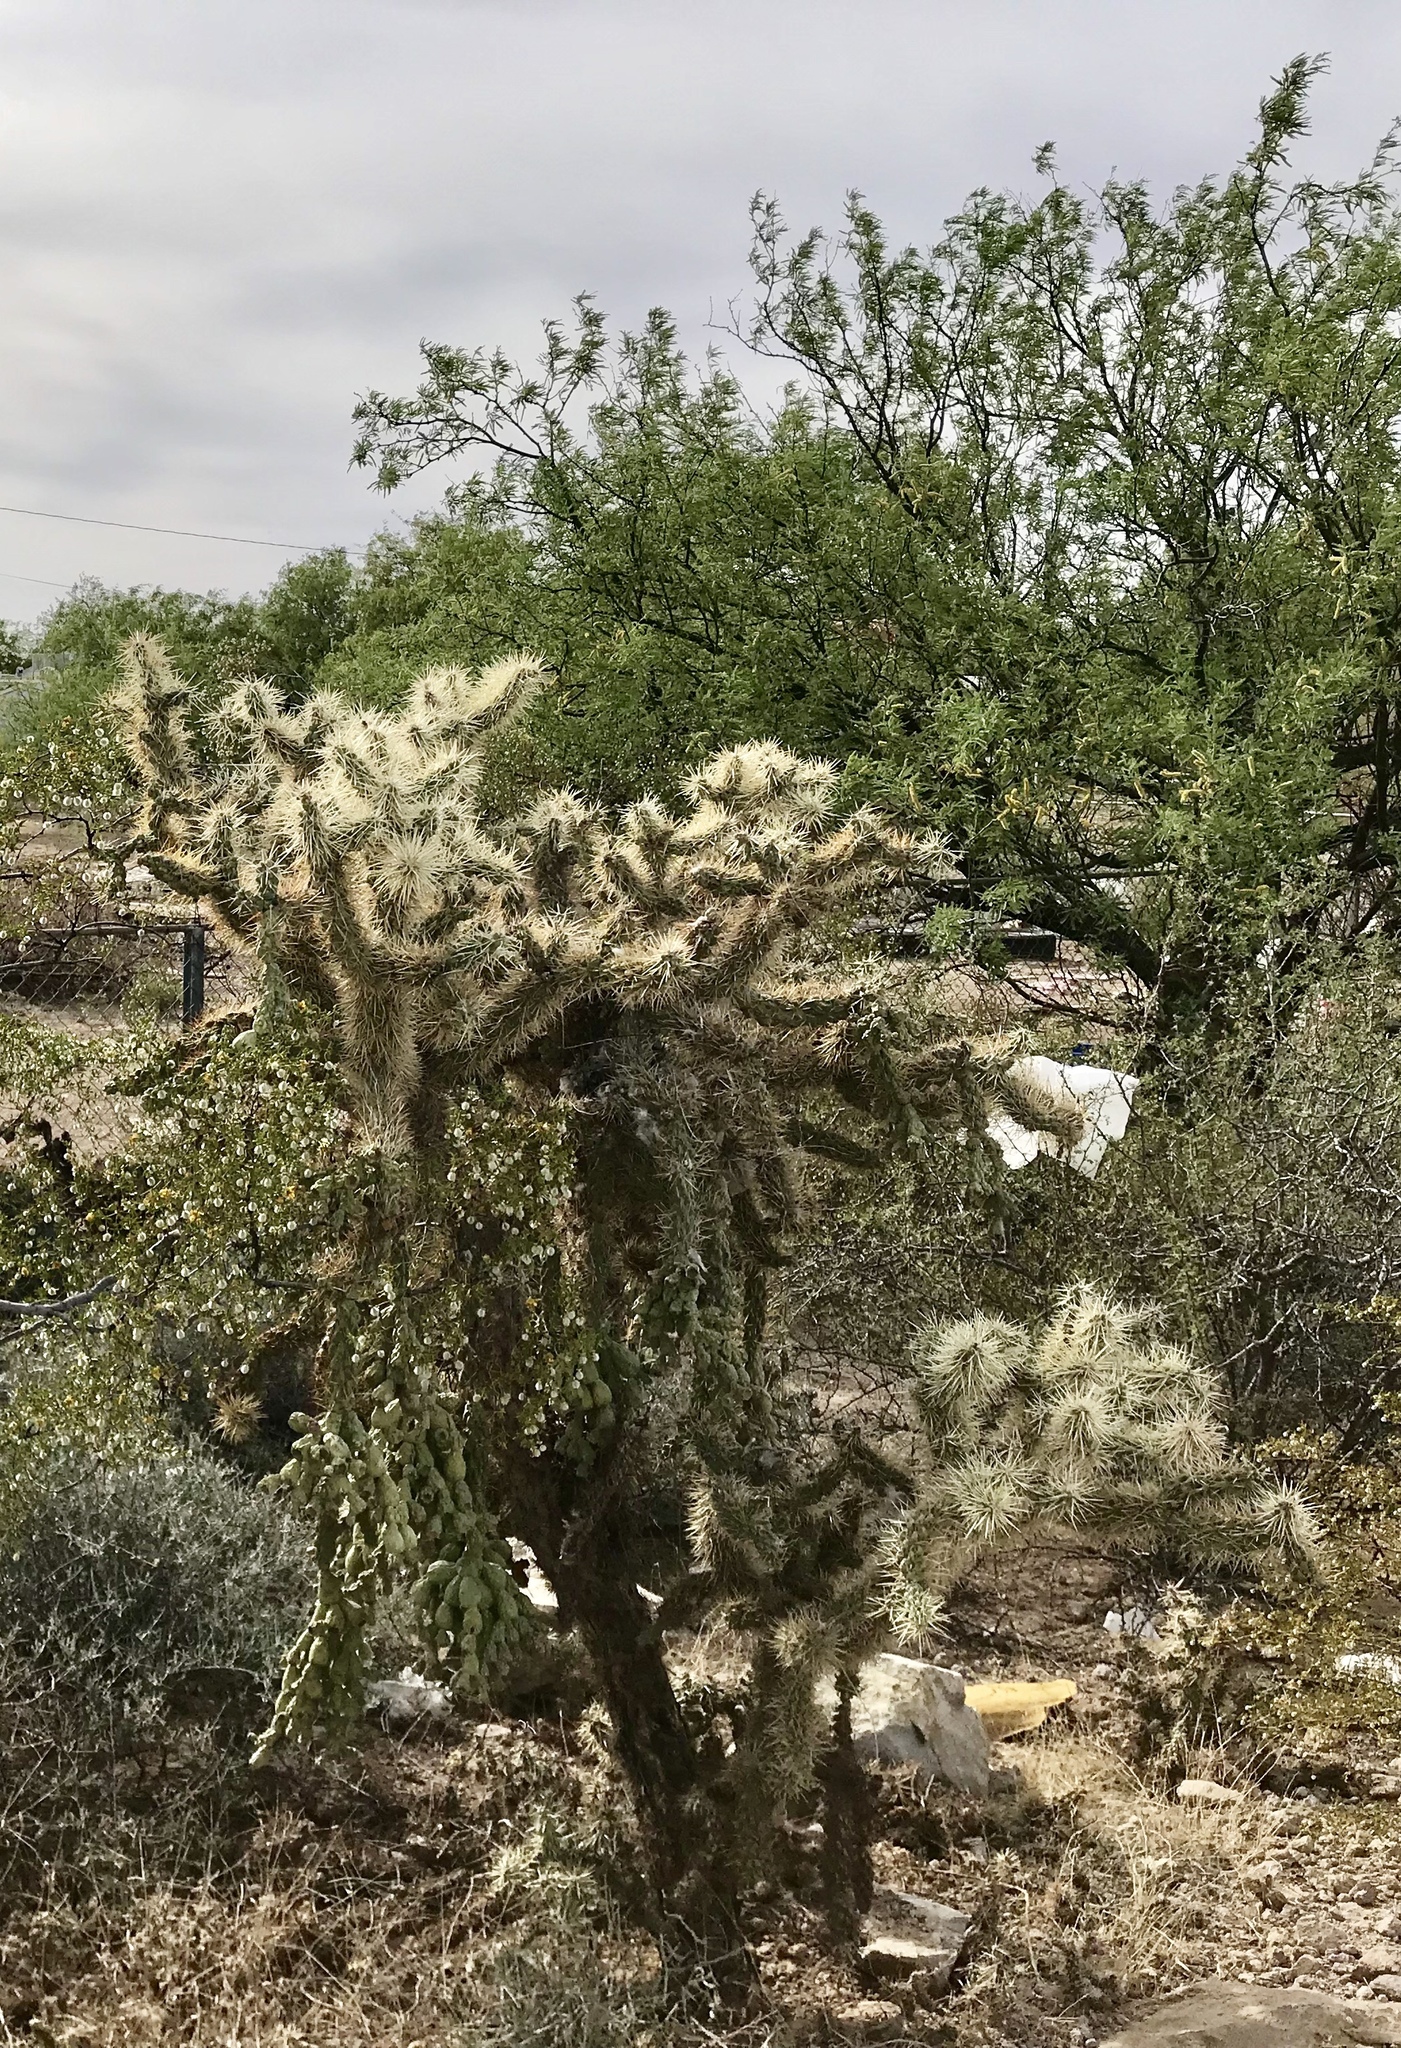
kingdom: Plantae
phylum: Tracheophyta
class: Magnoliopsida
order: Caryophyllales
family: Cactaceae
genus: Cylindropuntia
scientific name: Cylindropuntia fulgida
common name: Jumping cholla
